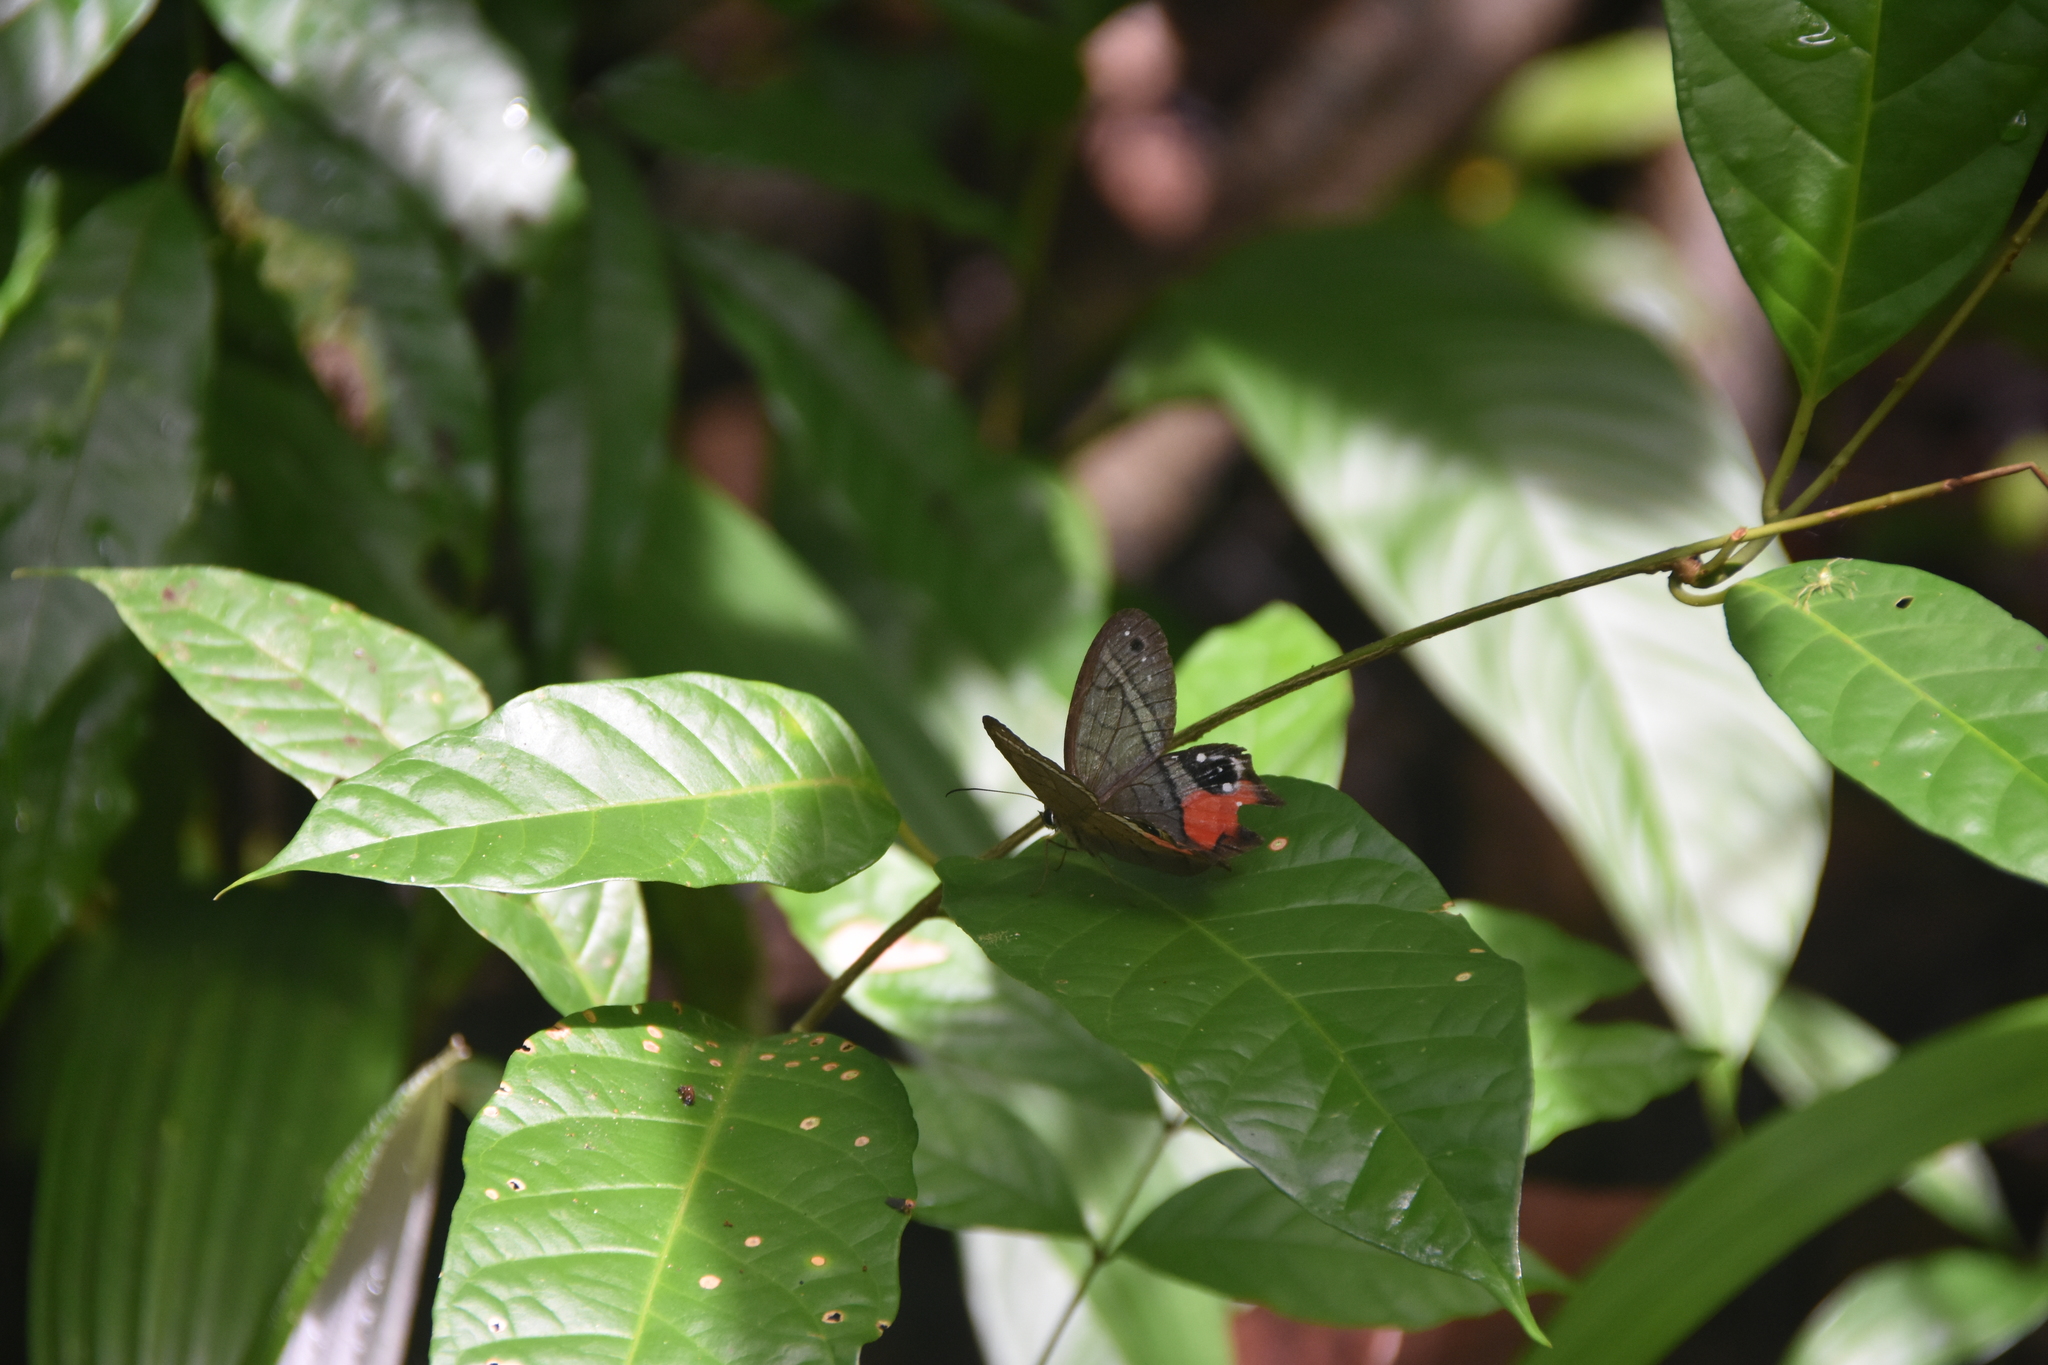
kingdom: Animalia
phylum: Arthropoda
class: Insecta
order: Lepidoptera
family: Nymphalidae
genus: Pierella
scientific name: Pierella helvina
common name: Red-washed satyr
